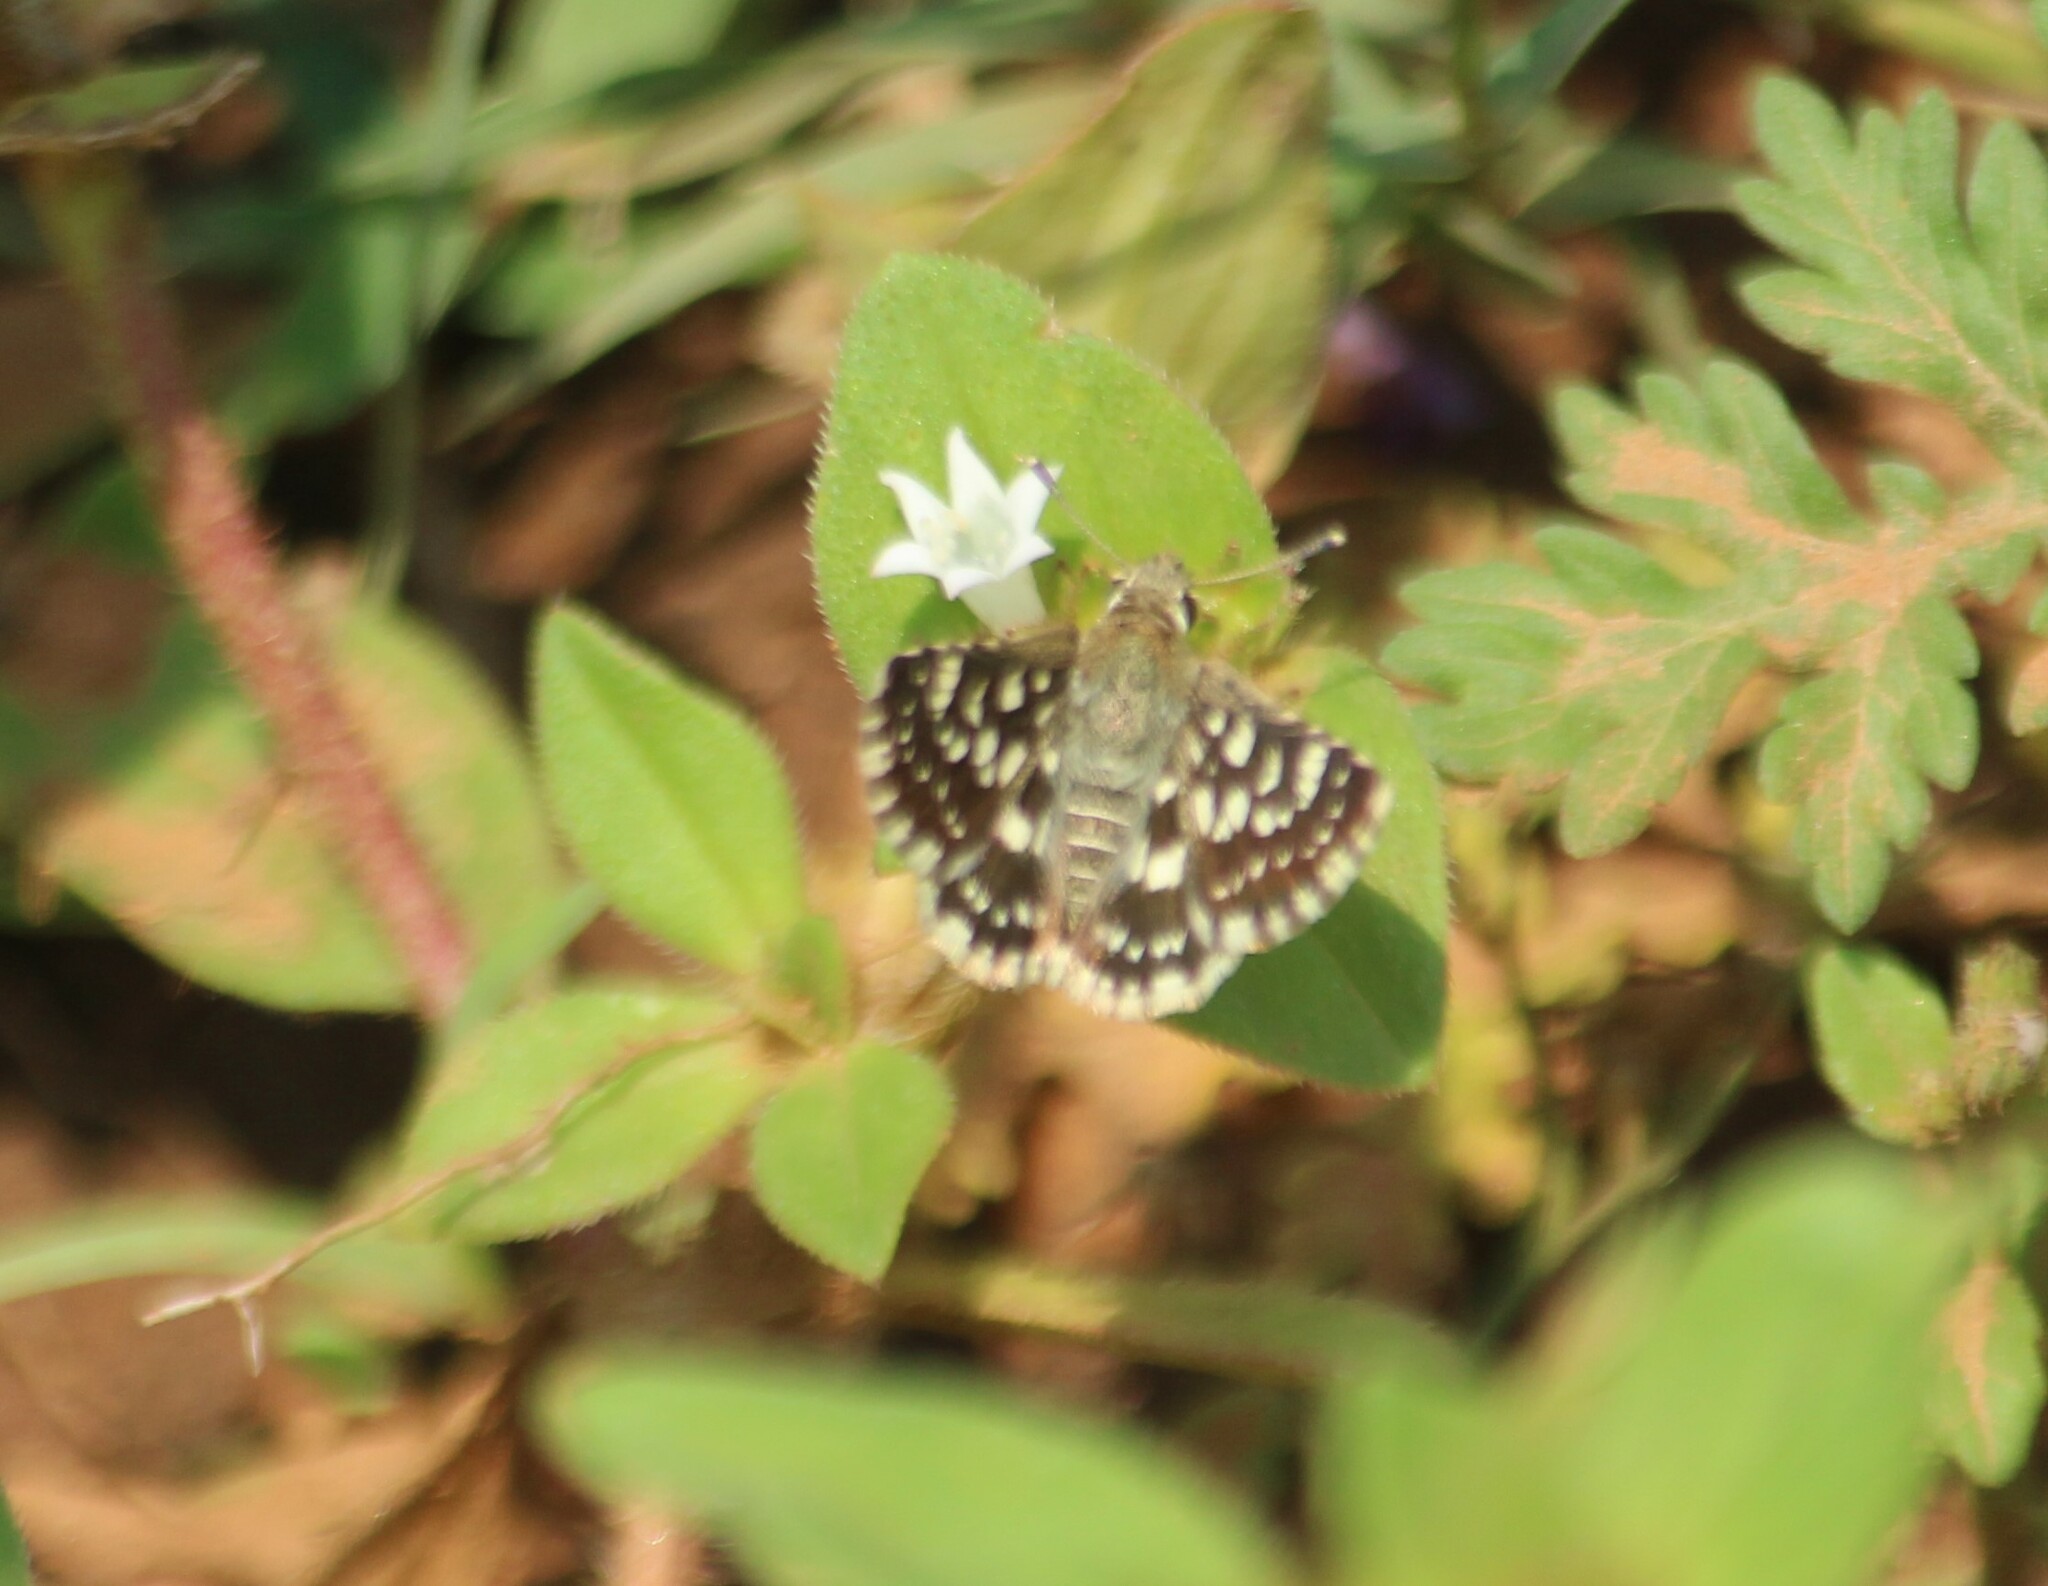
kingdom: Animalia
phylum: Arthropoda
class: Insecta
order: Lepidoptera
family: Hesperiidae
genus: Spialia
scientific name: Spialia galba
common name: Indian skipper
